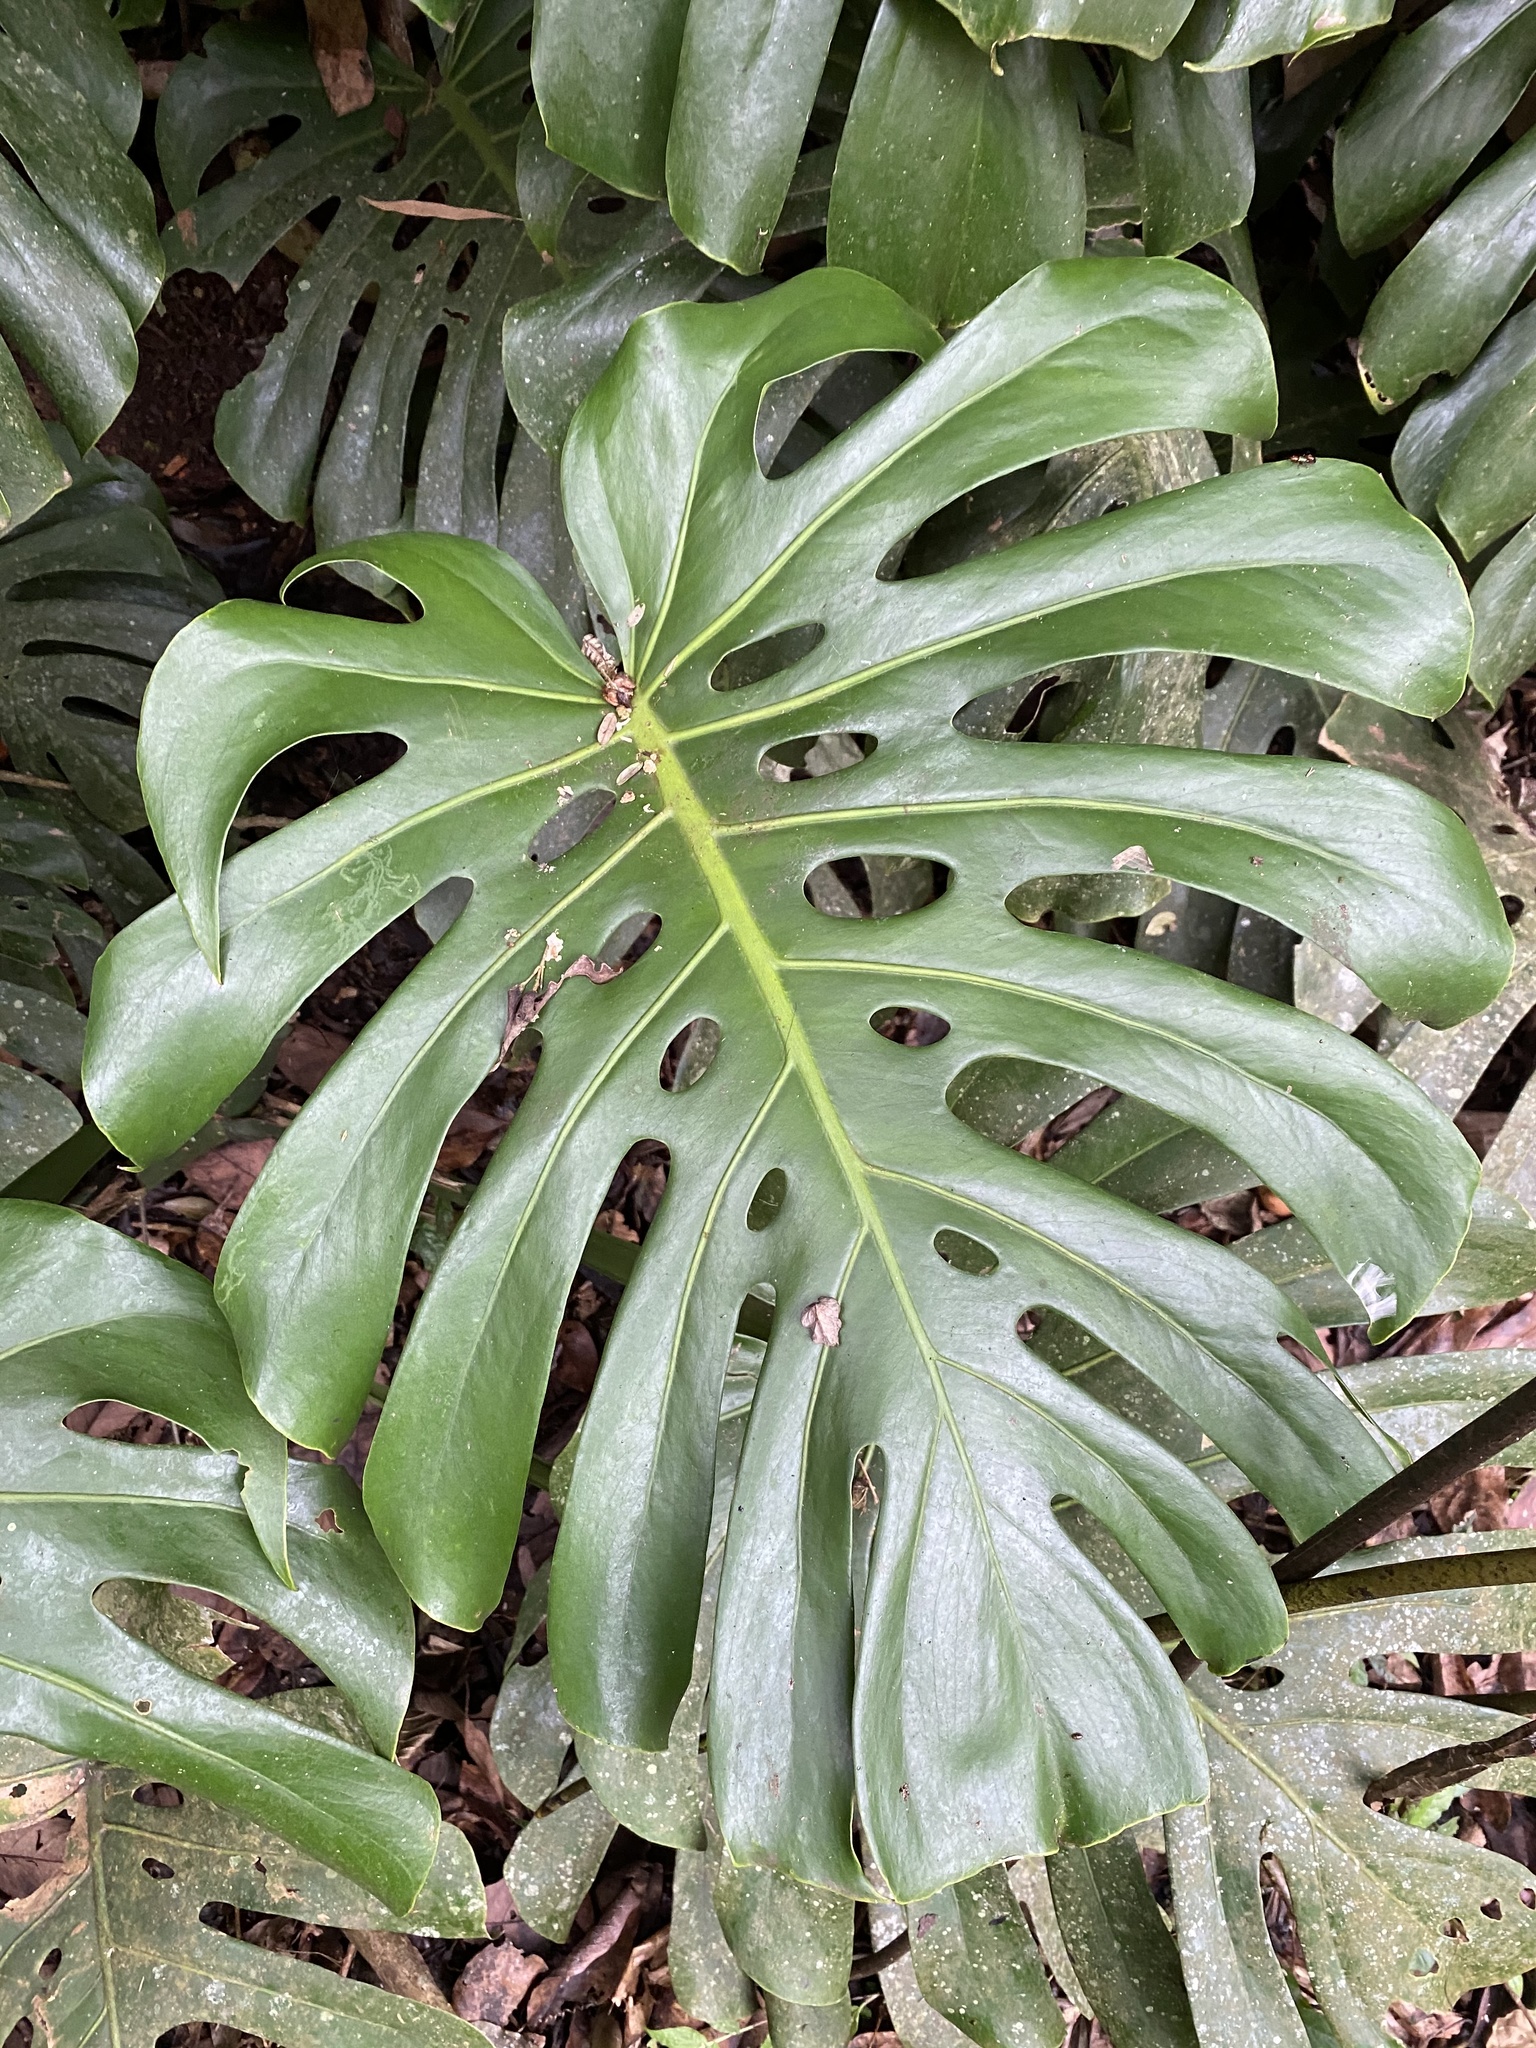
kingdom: Plantae
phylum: Tracheophyta
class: Liliopsida
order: Alismatales
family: Araceae
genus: Monstera
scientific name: Monstera deliciosa
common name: Cut-leaf-philodendron
